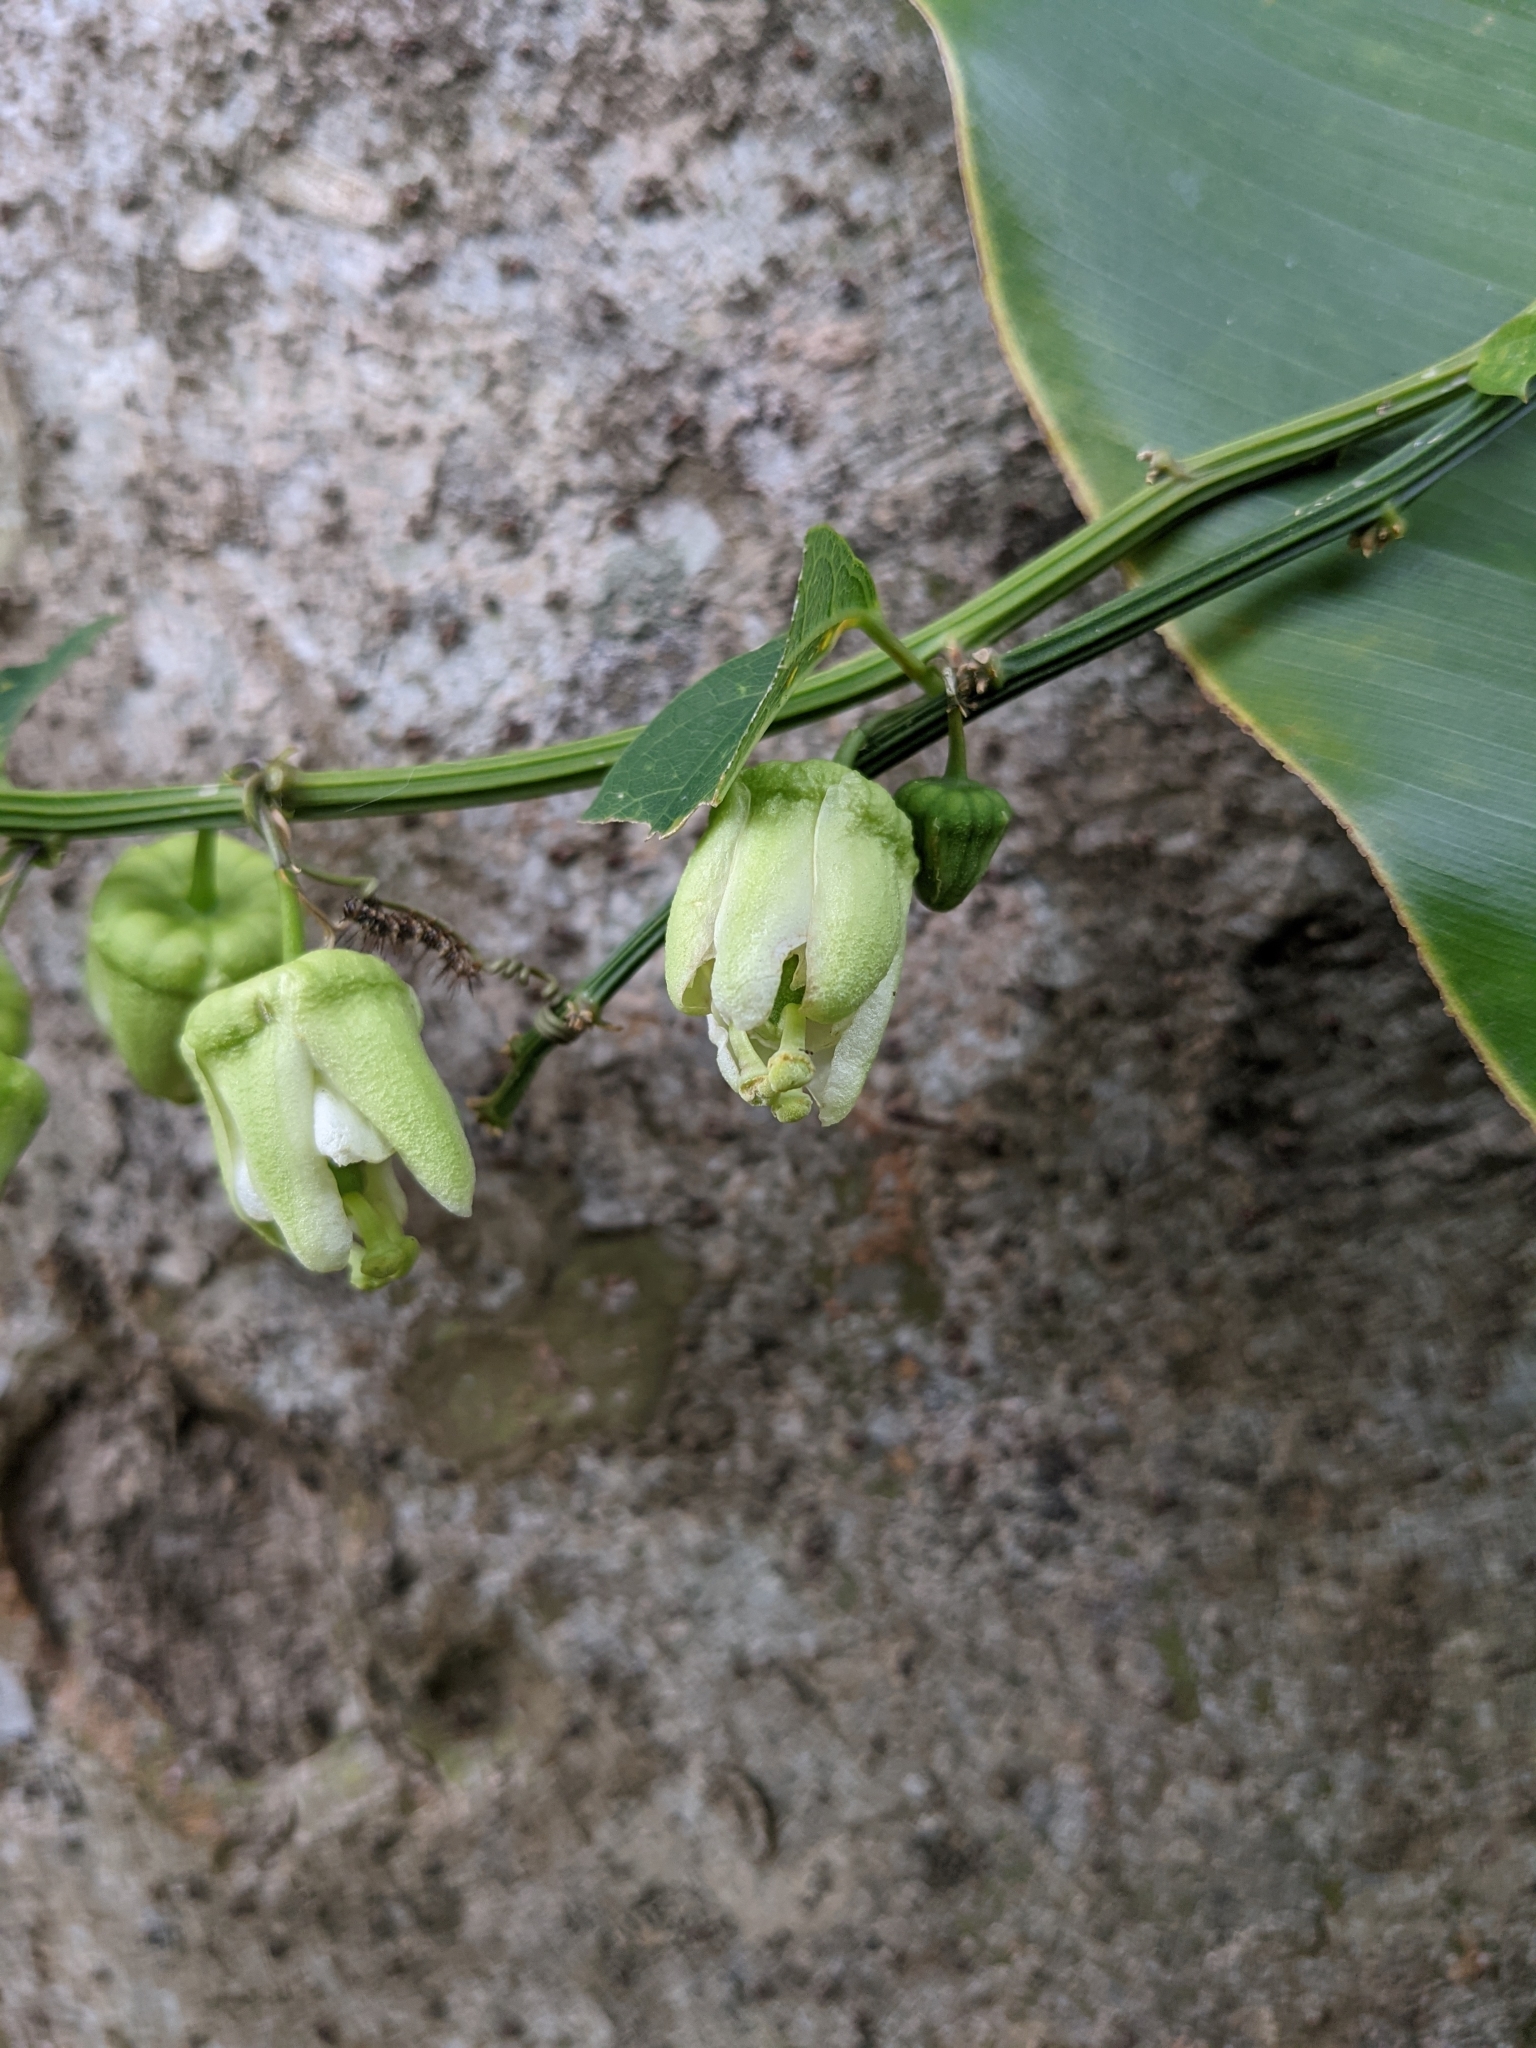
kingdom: Plantae
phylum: Tracheophyta
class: Magnoliopsida
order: Malpighiales
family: Passifloraceae
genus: Passiflora
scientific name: Passiflora biflora
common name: Twoflower passionflower
